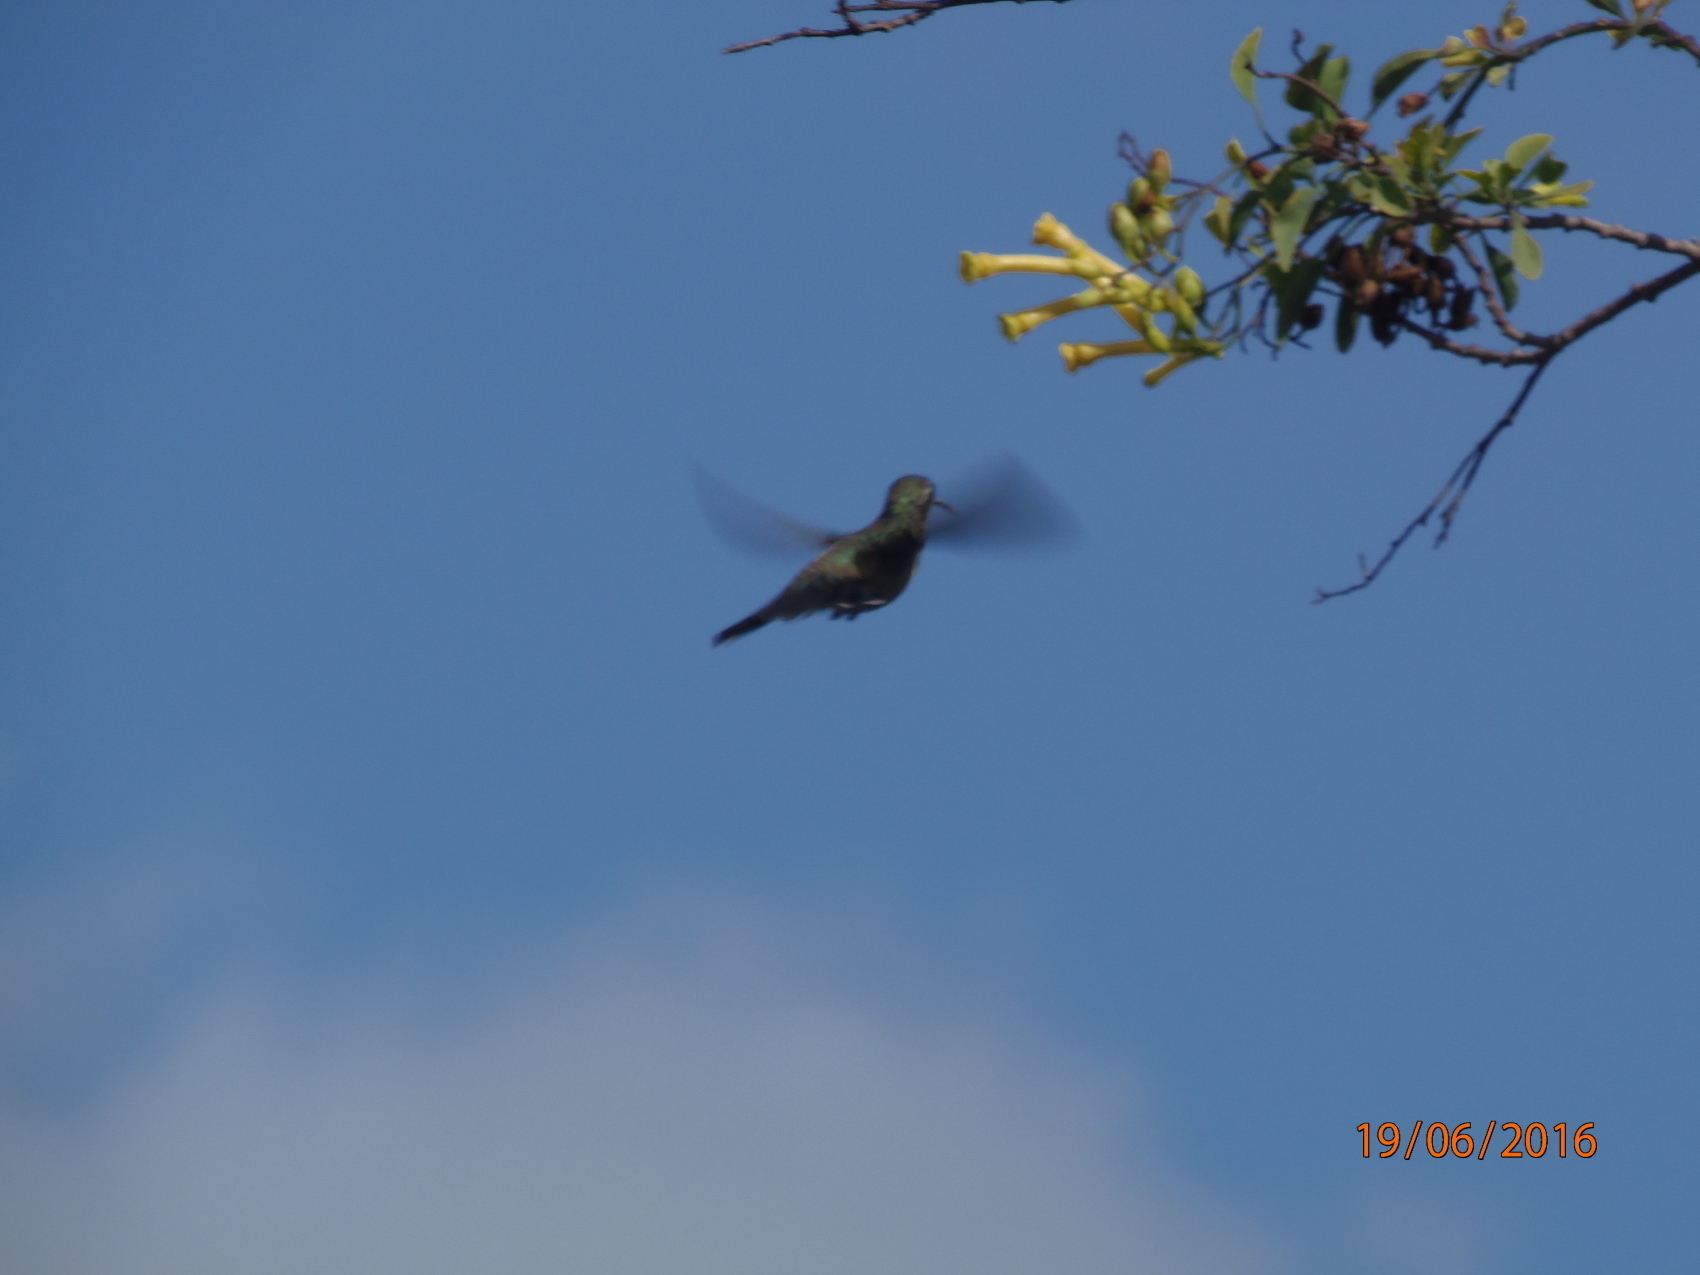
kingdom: Animalia
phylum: Chordata
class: Aves
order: Apodiformes
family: Trochilidae
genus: Cynanthus
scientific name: Cynanthus latirostris
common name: Broad-billed hummingbird
